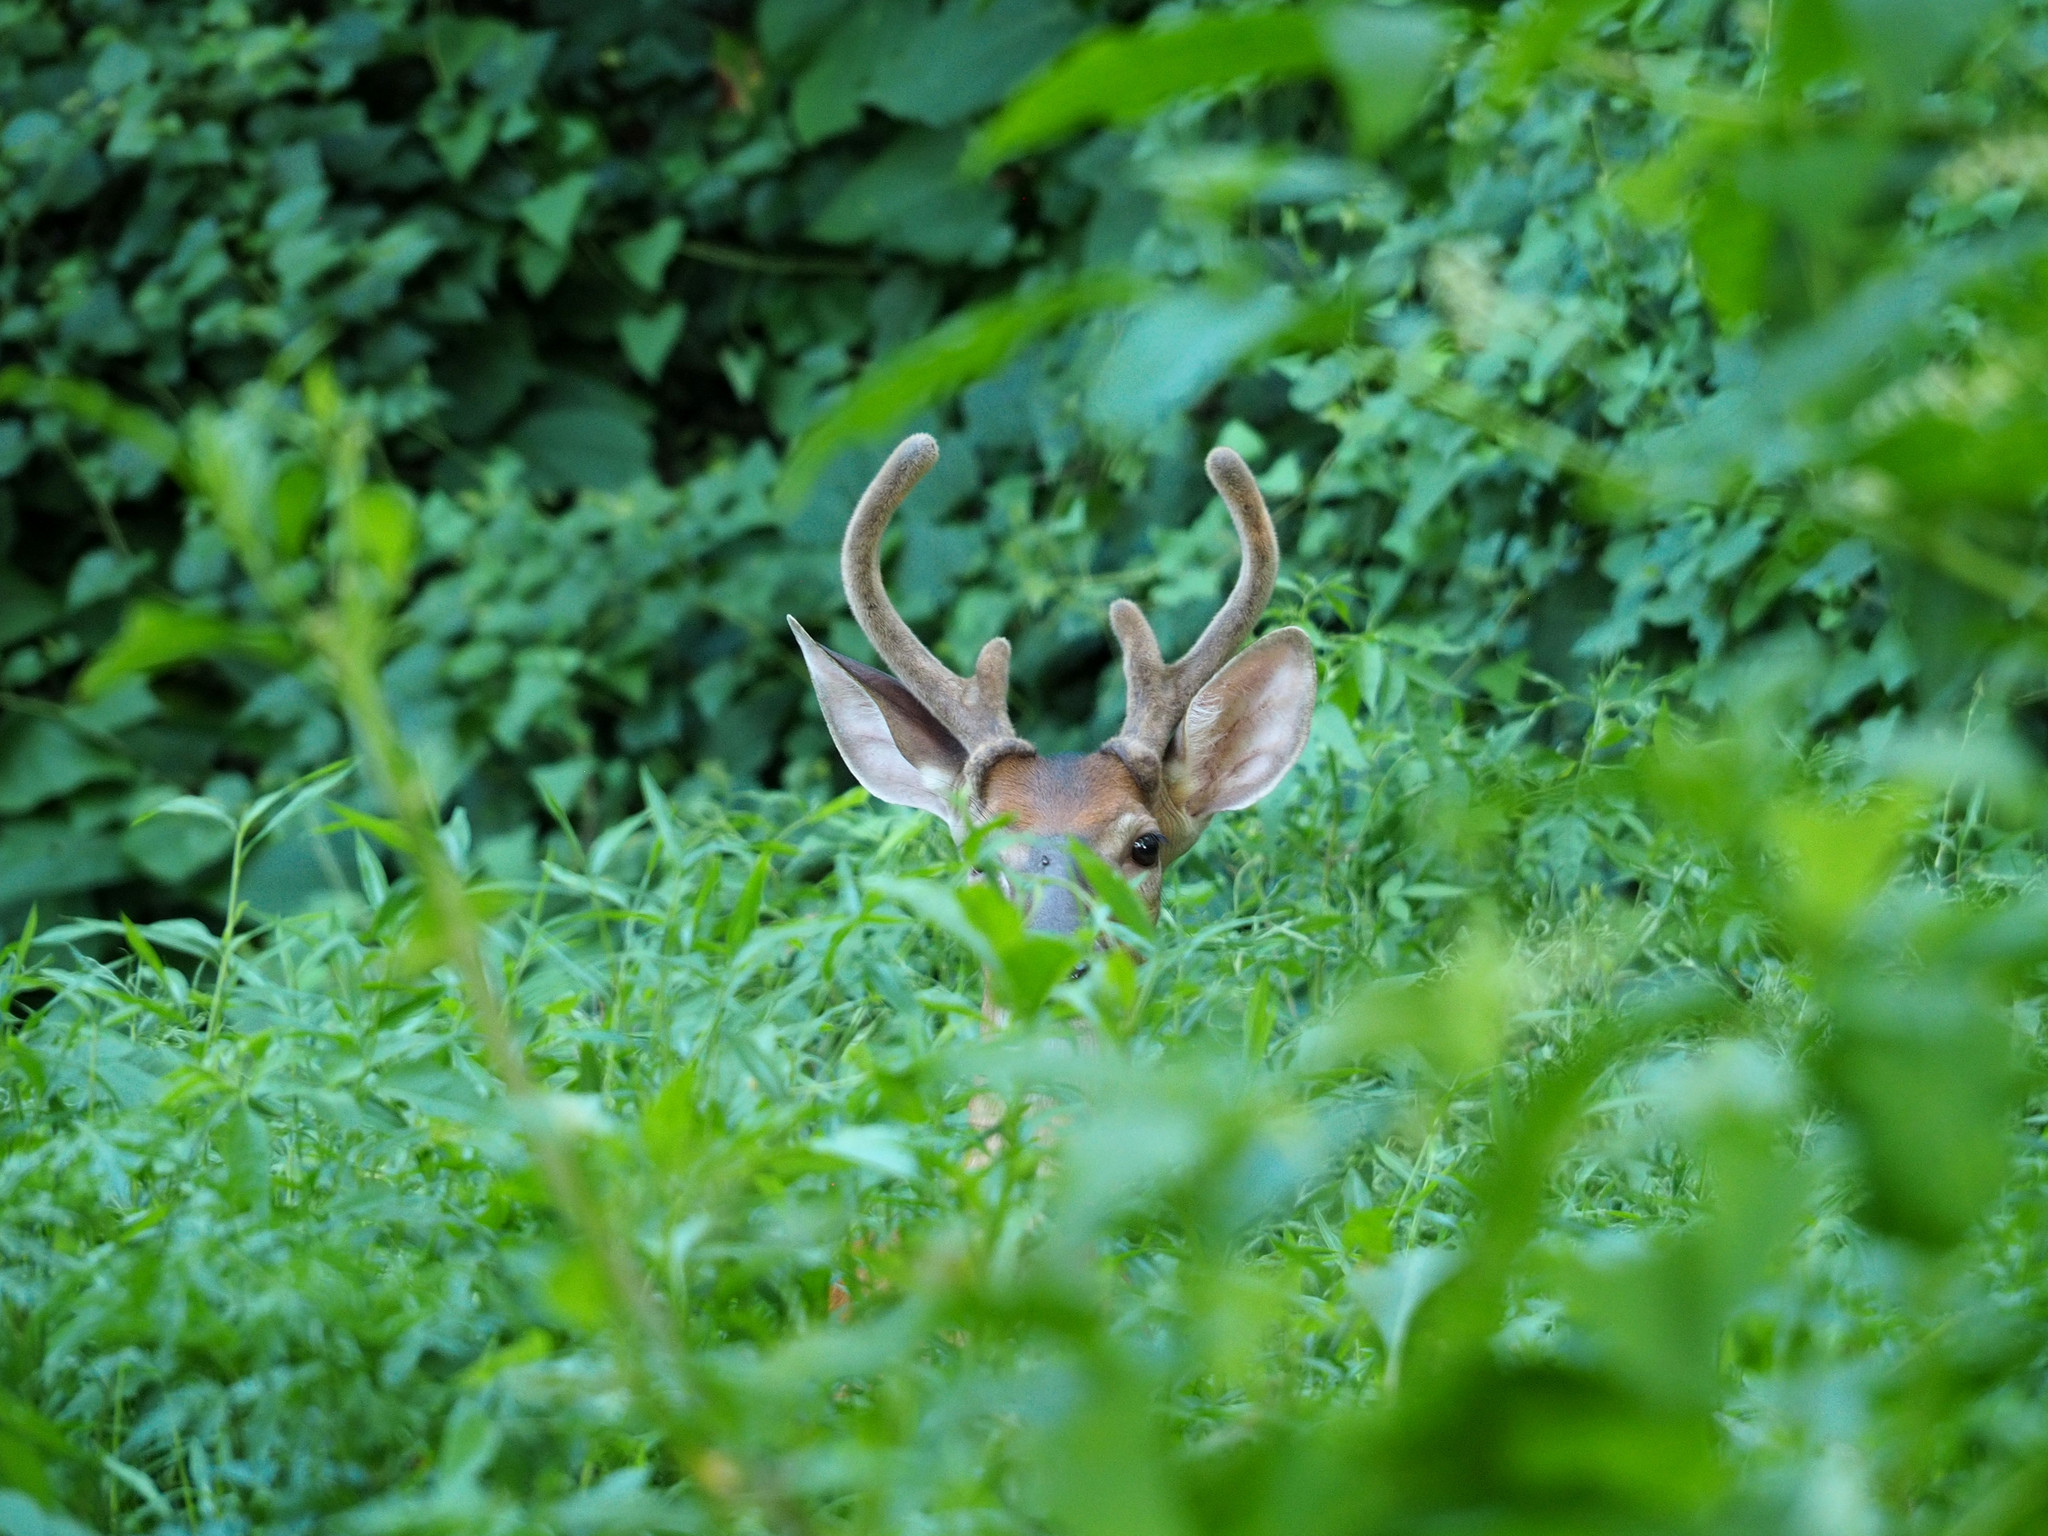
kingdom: Animalia
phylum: Chordata
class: Mammalia
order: Artiodactyla
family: Cervidae
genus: Odocoileus
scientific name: Odocoileus virginianus
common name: White-tailed deer
